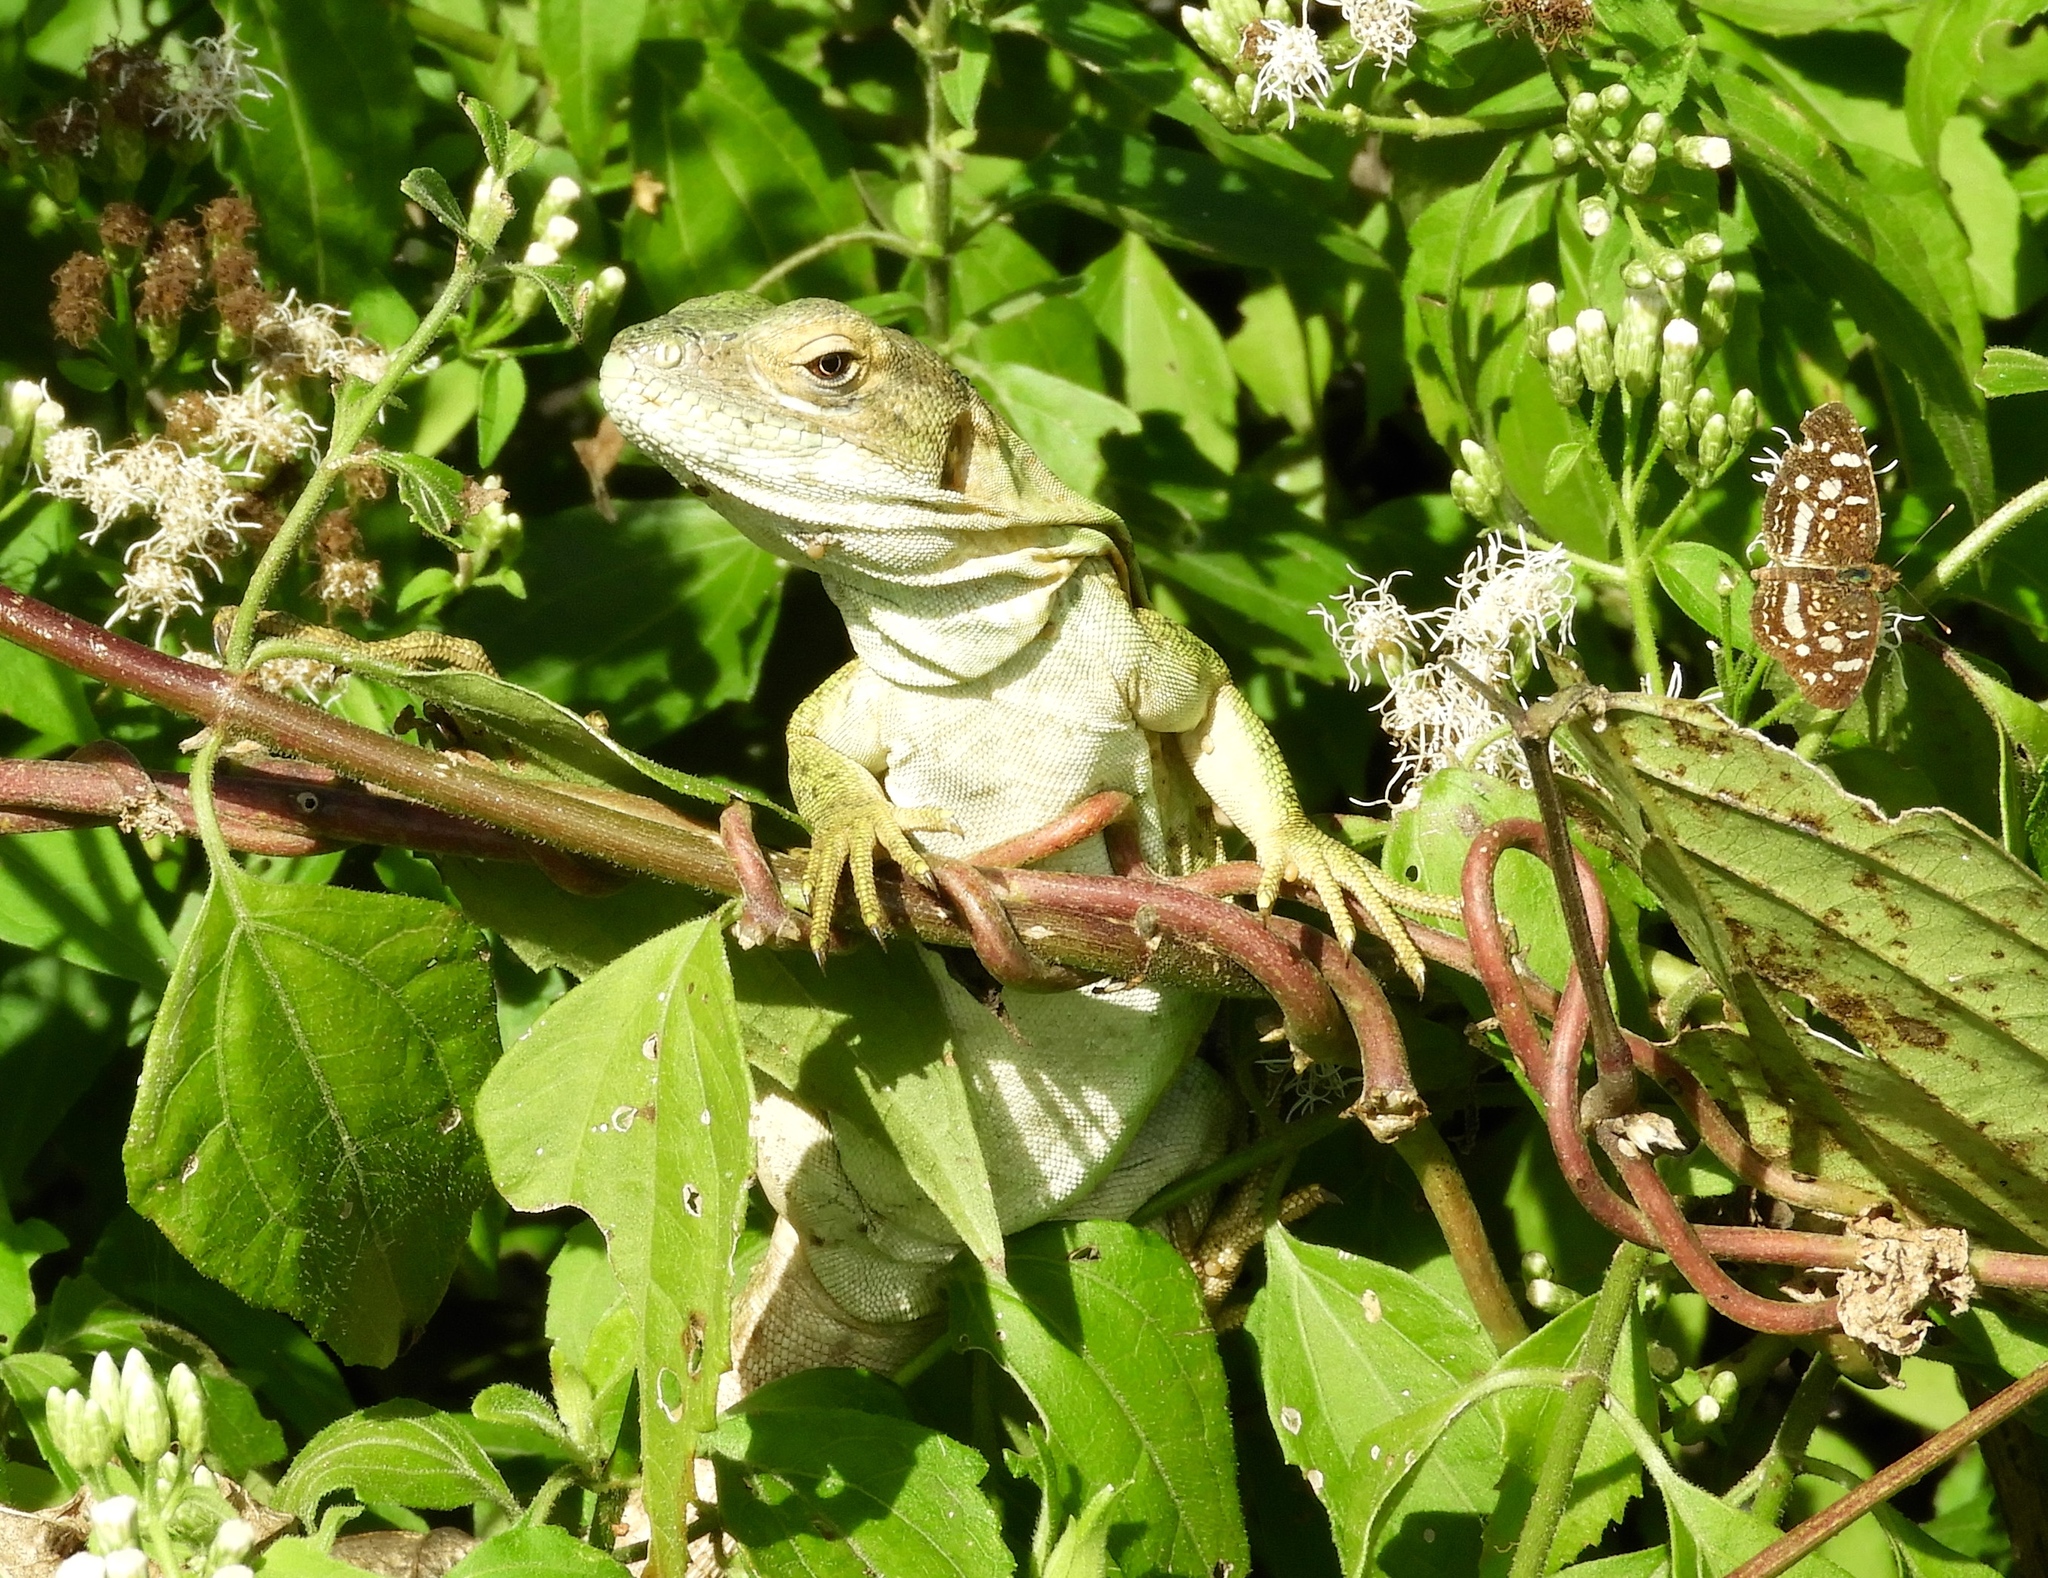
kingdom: Animalia
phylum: Chordata
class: Squamata
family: Iguanidae
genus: Ctenosaura
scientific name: Ctenosaura pectinata
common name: Guerreran spiny-tailed iguana
